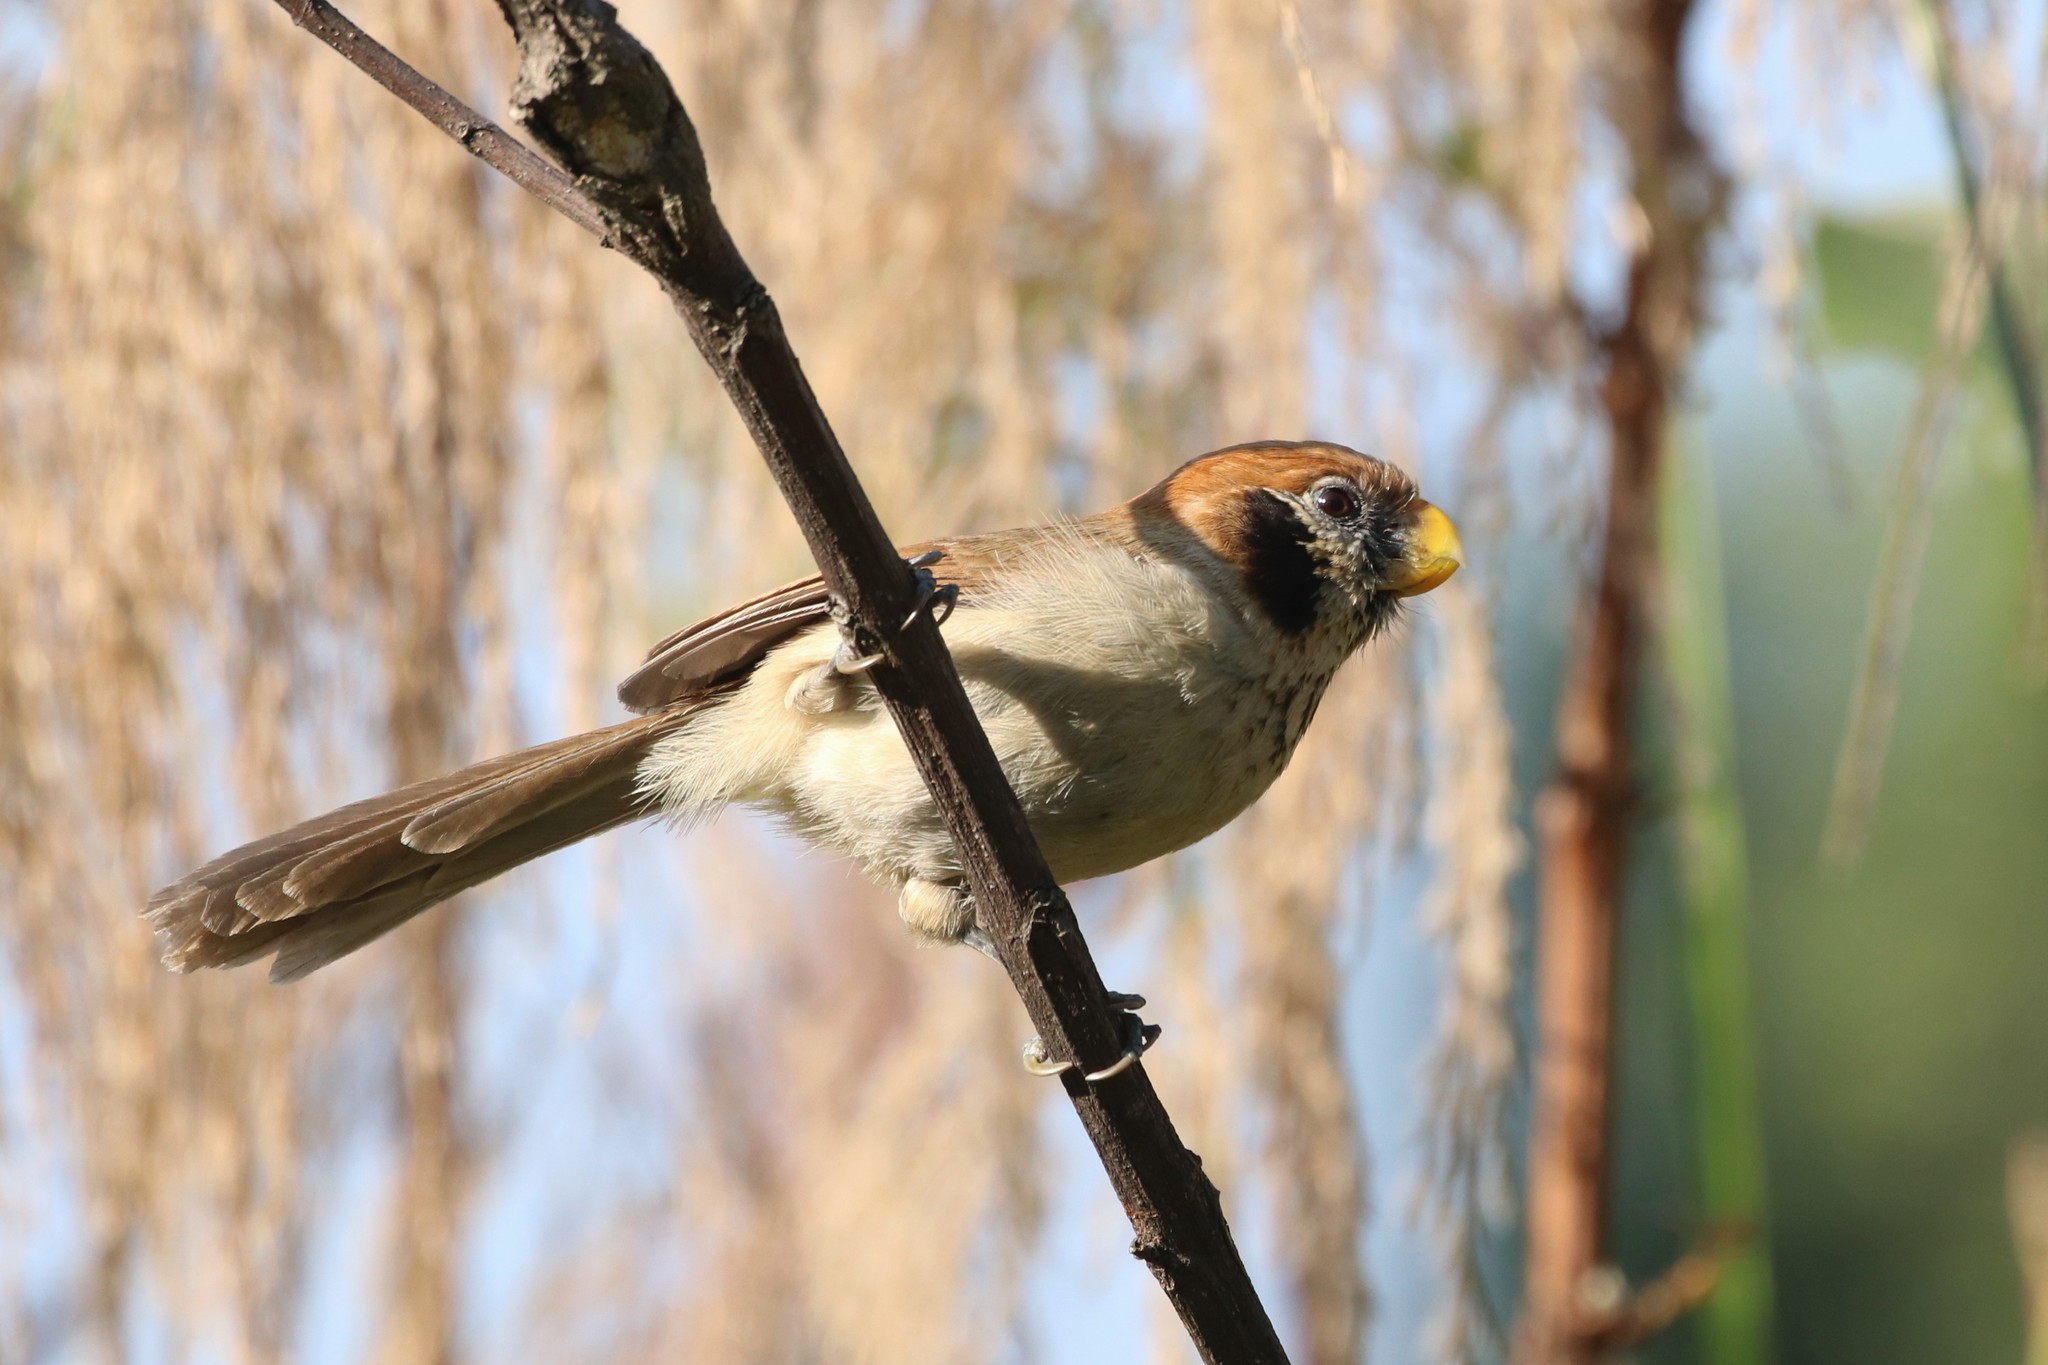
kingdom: Animalia
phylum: Chordata
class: Aves
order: Passeriformes
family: Sylviidae
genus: Paradoxornis
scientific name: Paradoxornis guttaticollis
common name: Spot-breasted parrotbill
